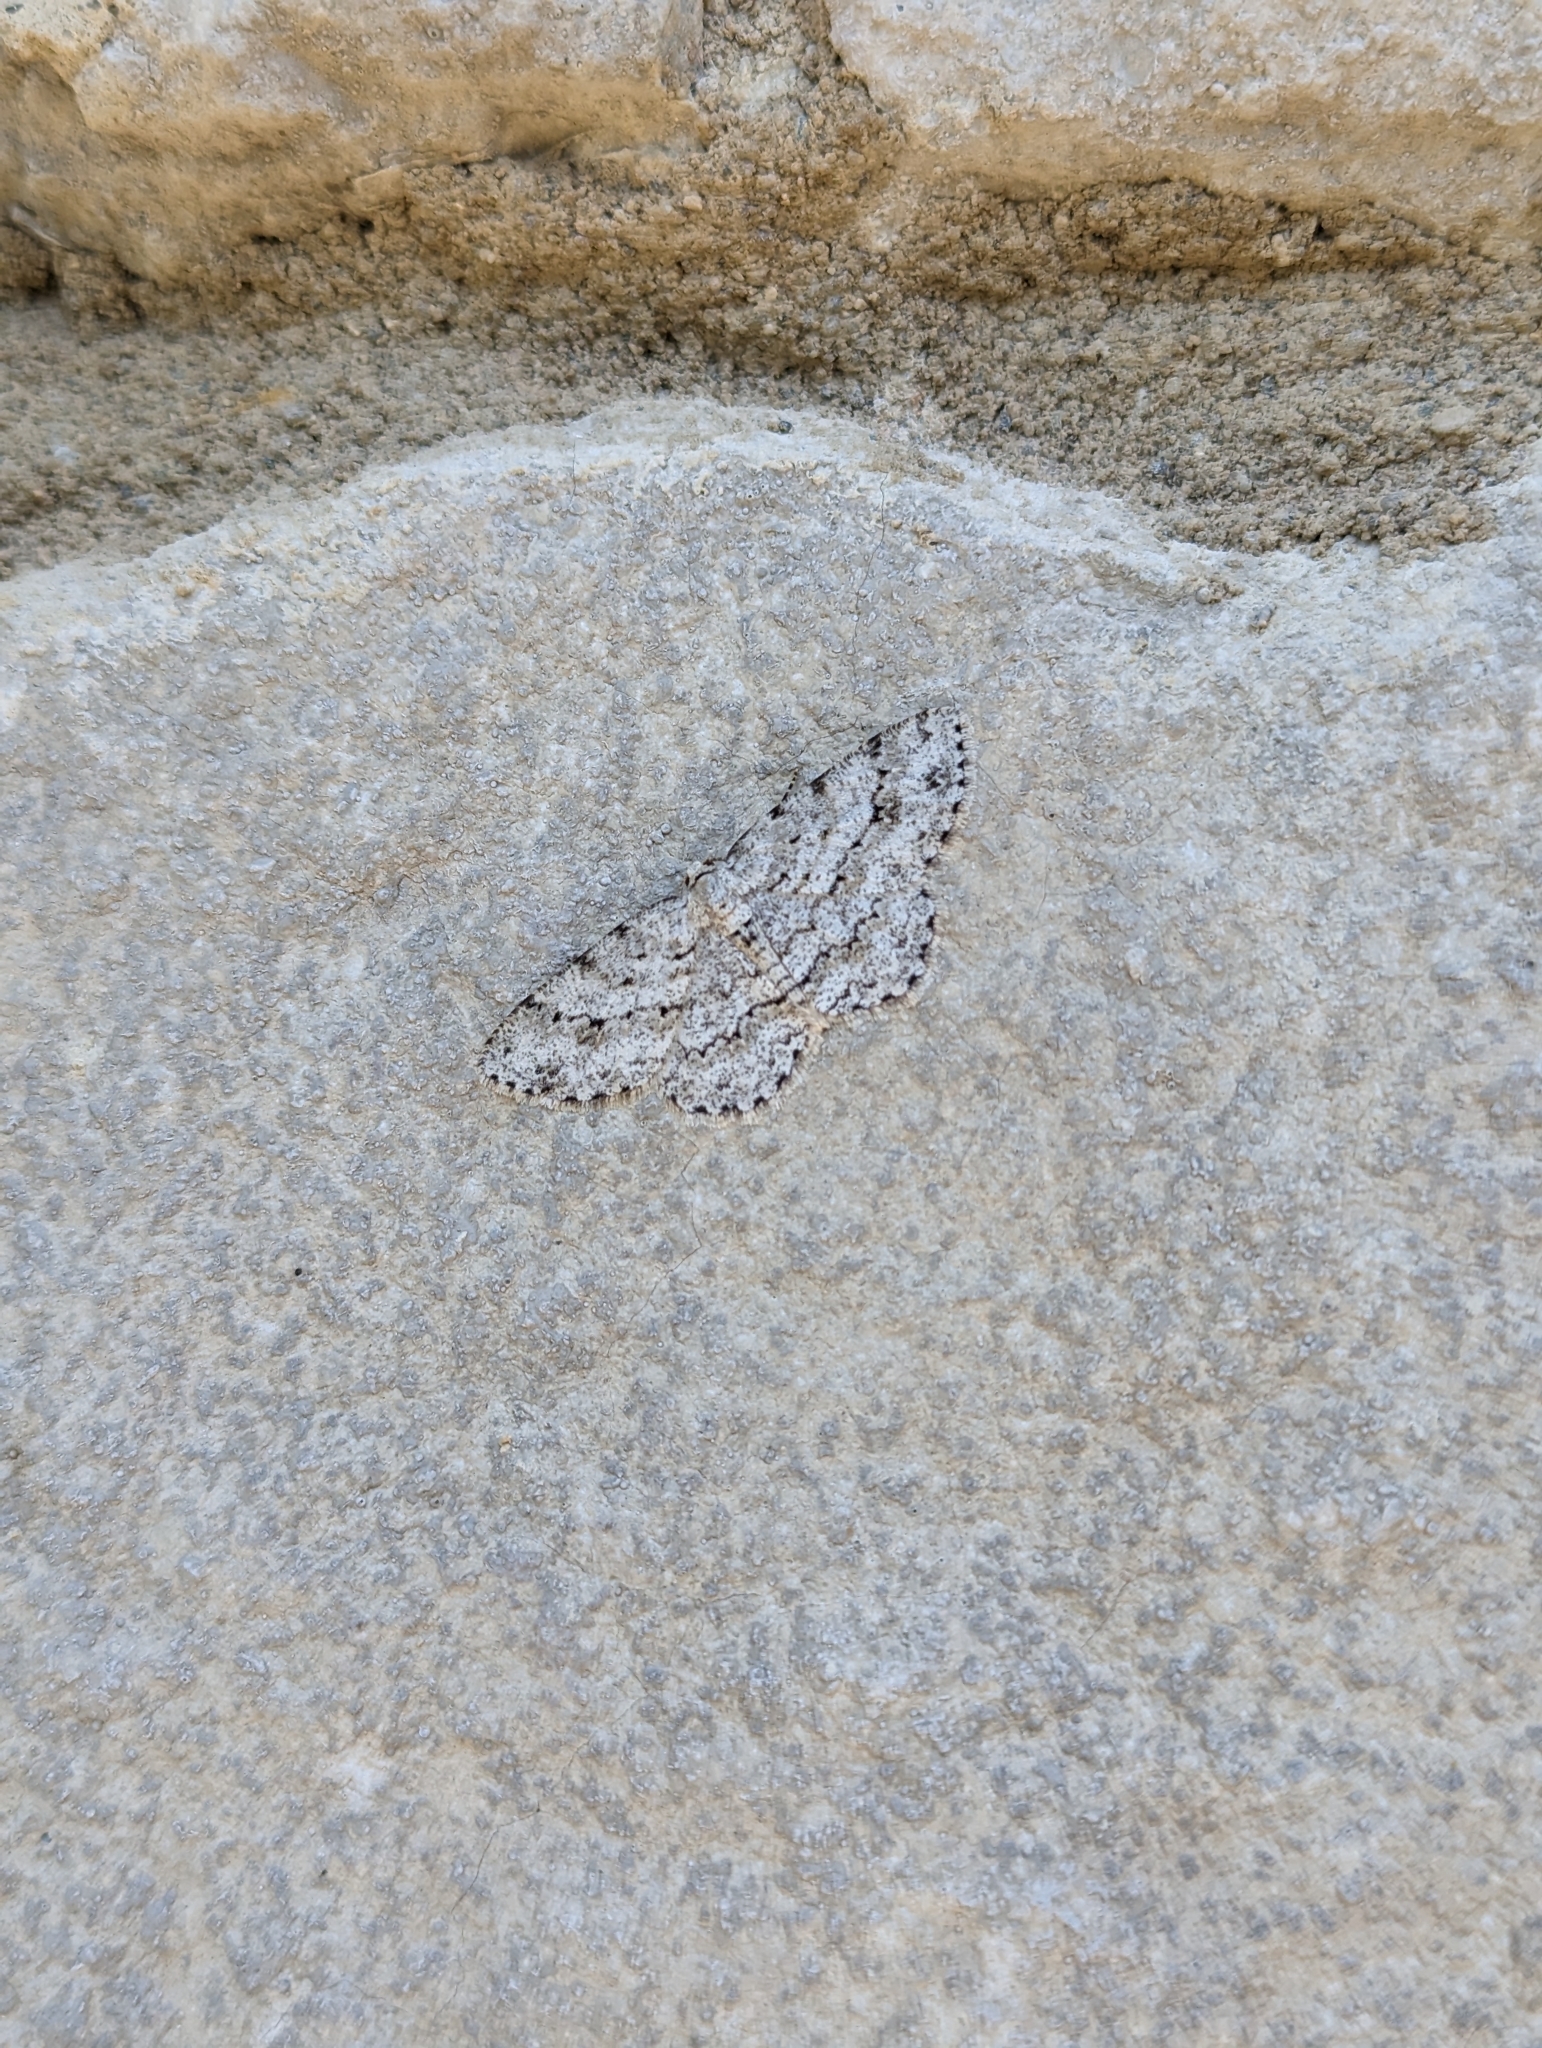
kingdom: Animalia
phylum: Arthropoda
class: Insecta
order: Lepidoptera
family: Geometridae
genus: Ectropis
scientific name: Ectropis crepuscularia
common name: Engrailed
